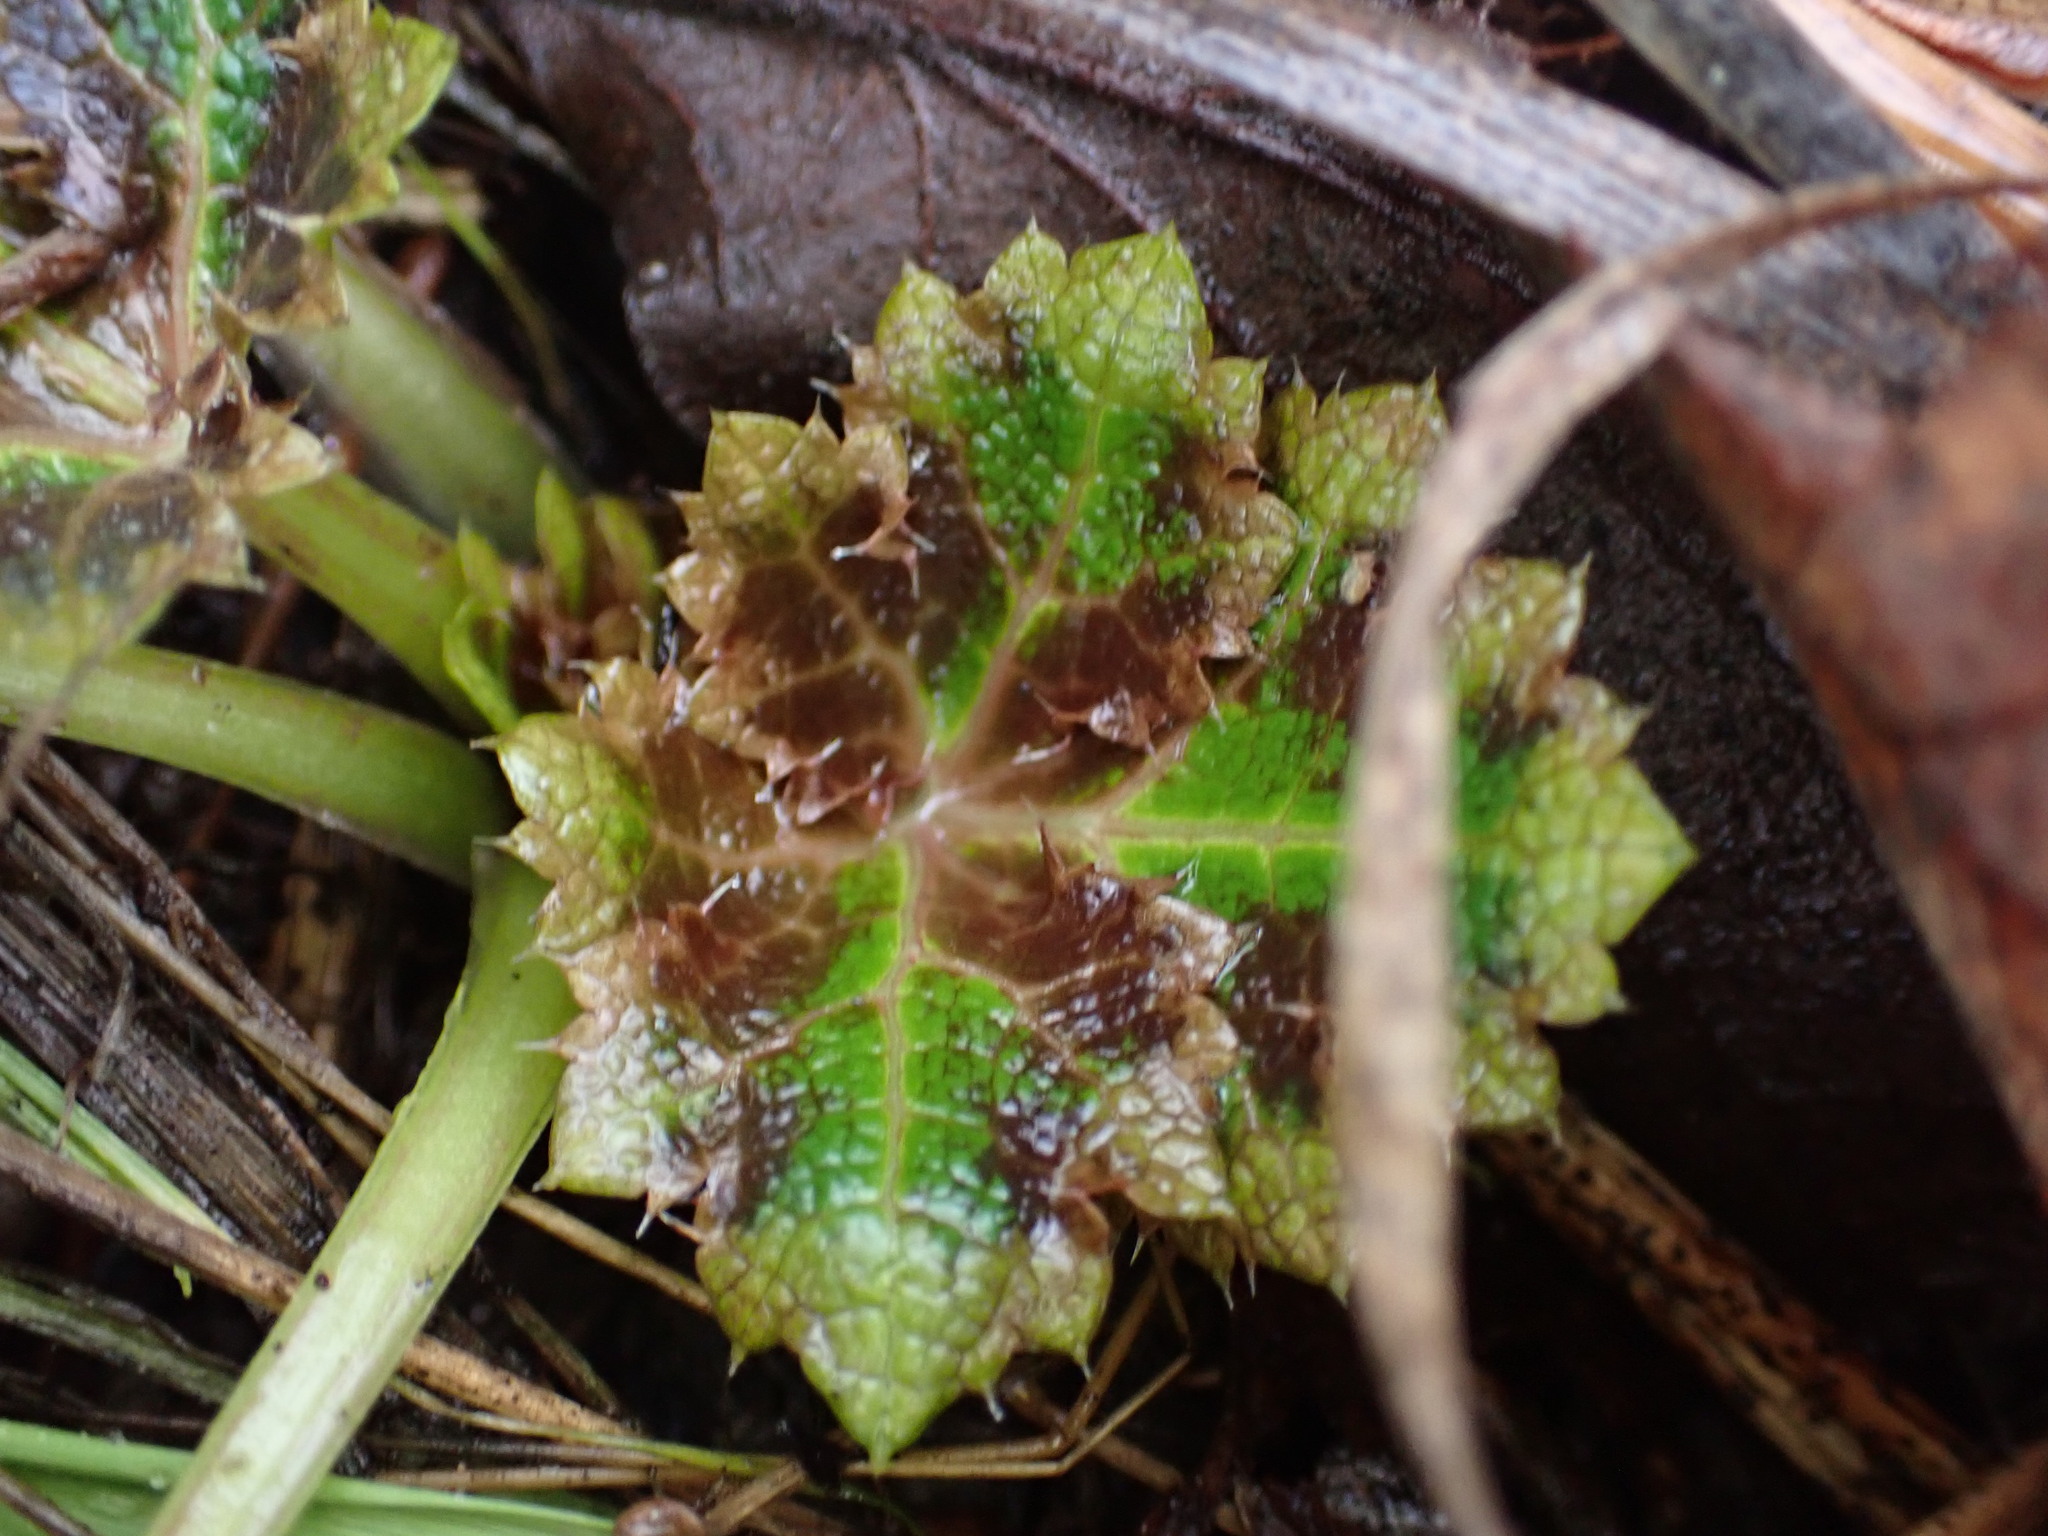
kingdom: Plantae
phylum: Tracheophyta
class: Magnoliopsida
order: Apiales
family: Apiaceae
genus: Sanicula
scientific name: Sanicula crassicaulis
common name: Western snakeroot
